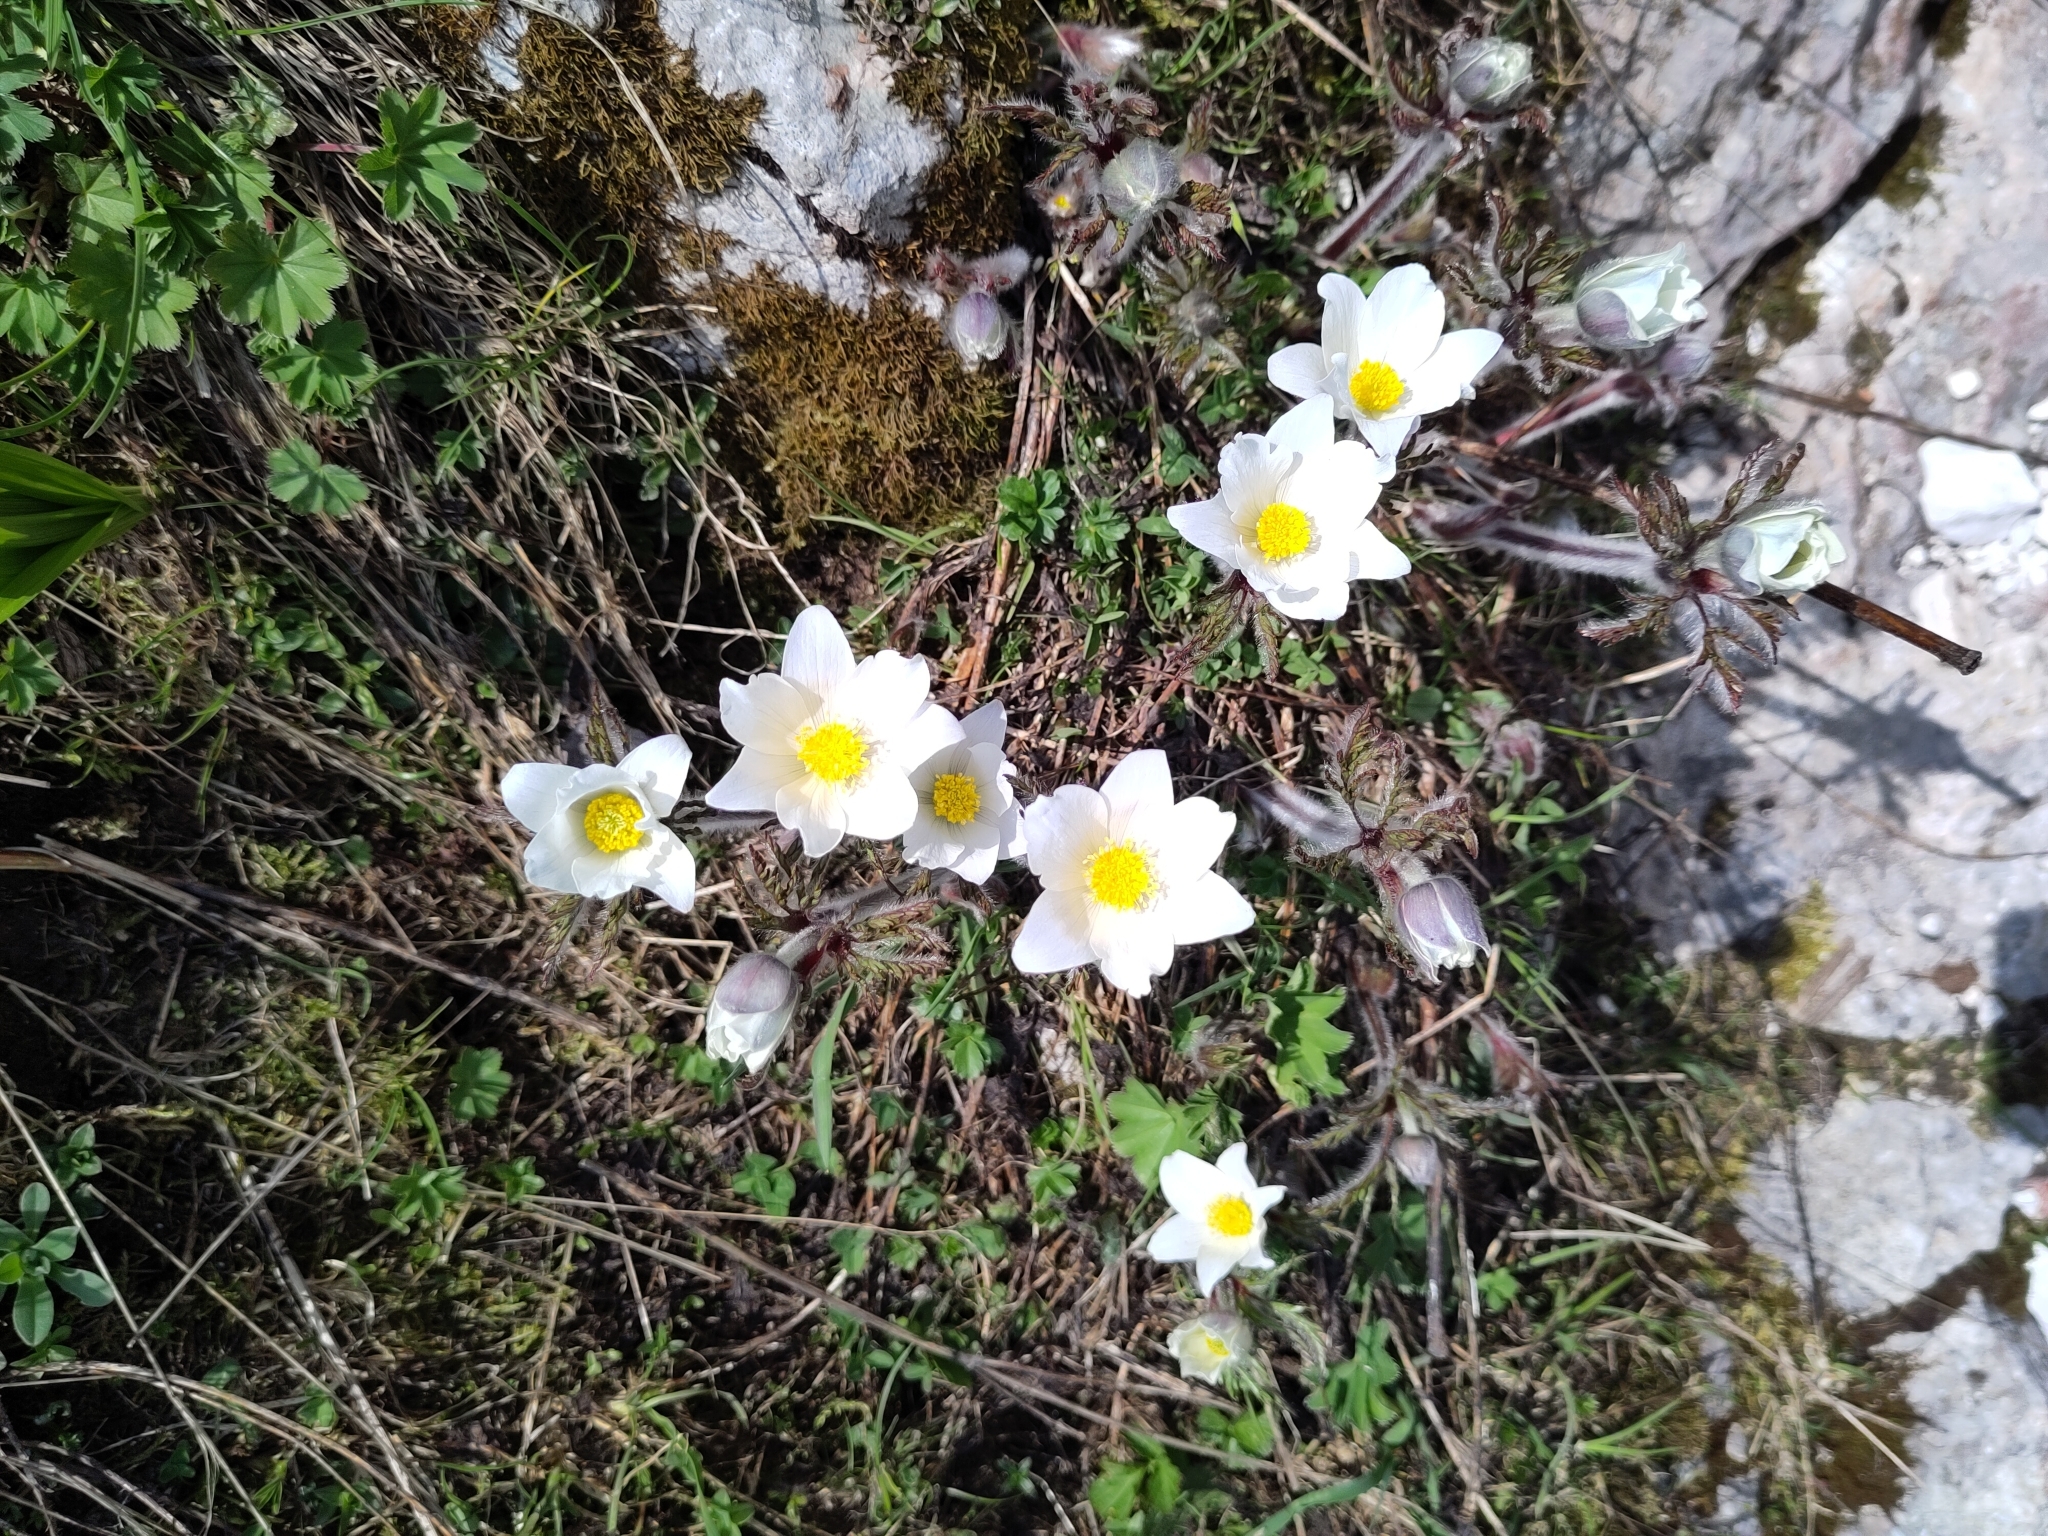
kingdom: Plantae
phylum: Tracheophyta
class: Magnoliopsida
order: Ranunculales
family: Ranunculaceae
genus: Pulsatilla
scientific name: Pulsatilla alpina
